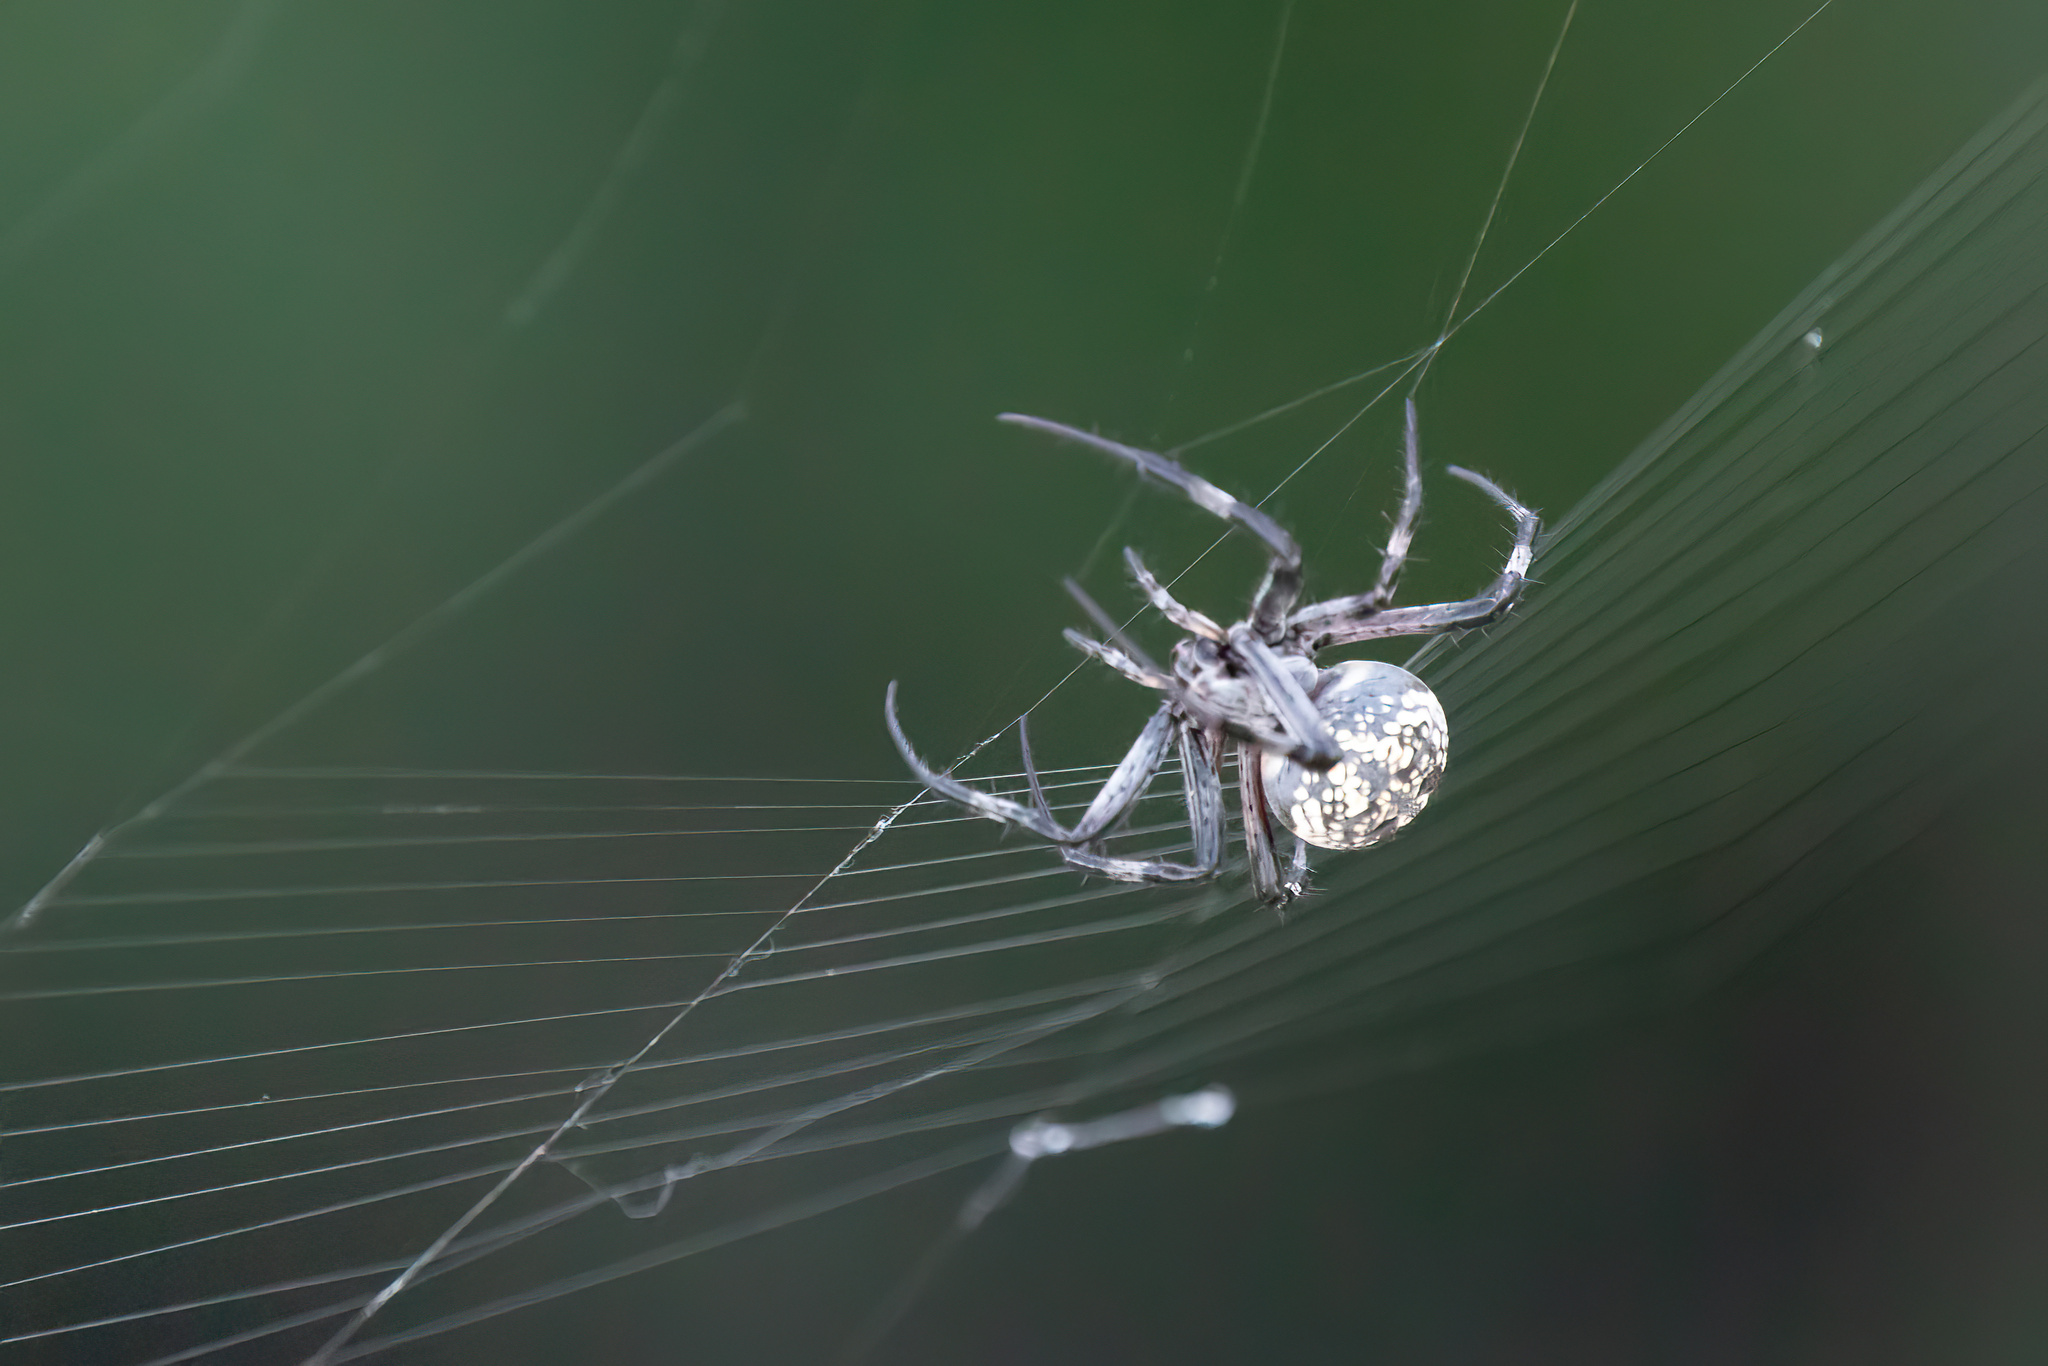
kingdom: Animalia
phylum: Arthropoda
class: Arachnida
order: Araneae
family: Araneidae
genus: Neoscona
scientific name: Neoscona oaxacensis
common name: Orb weavers
